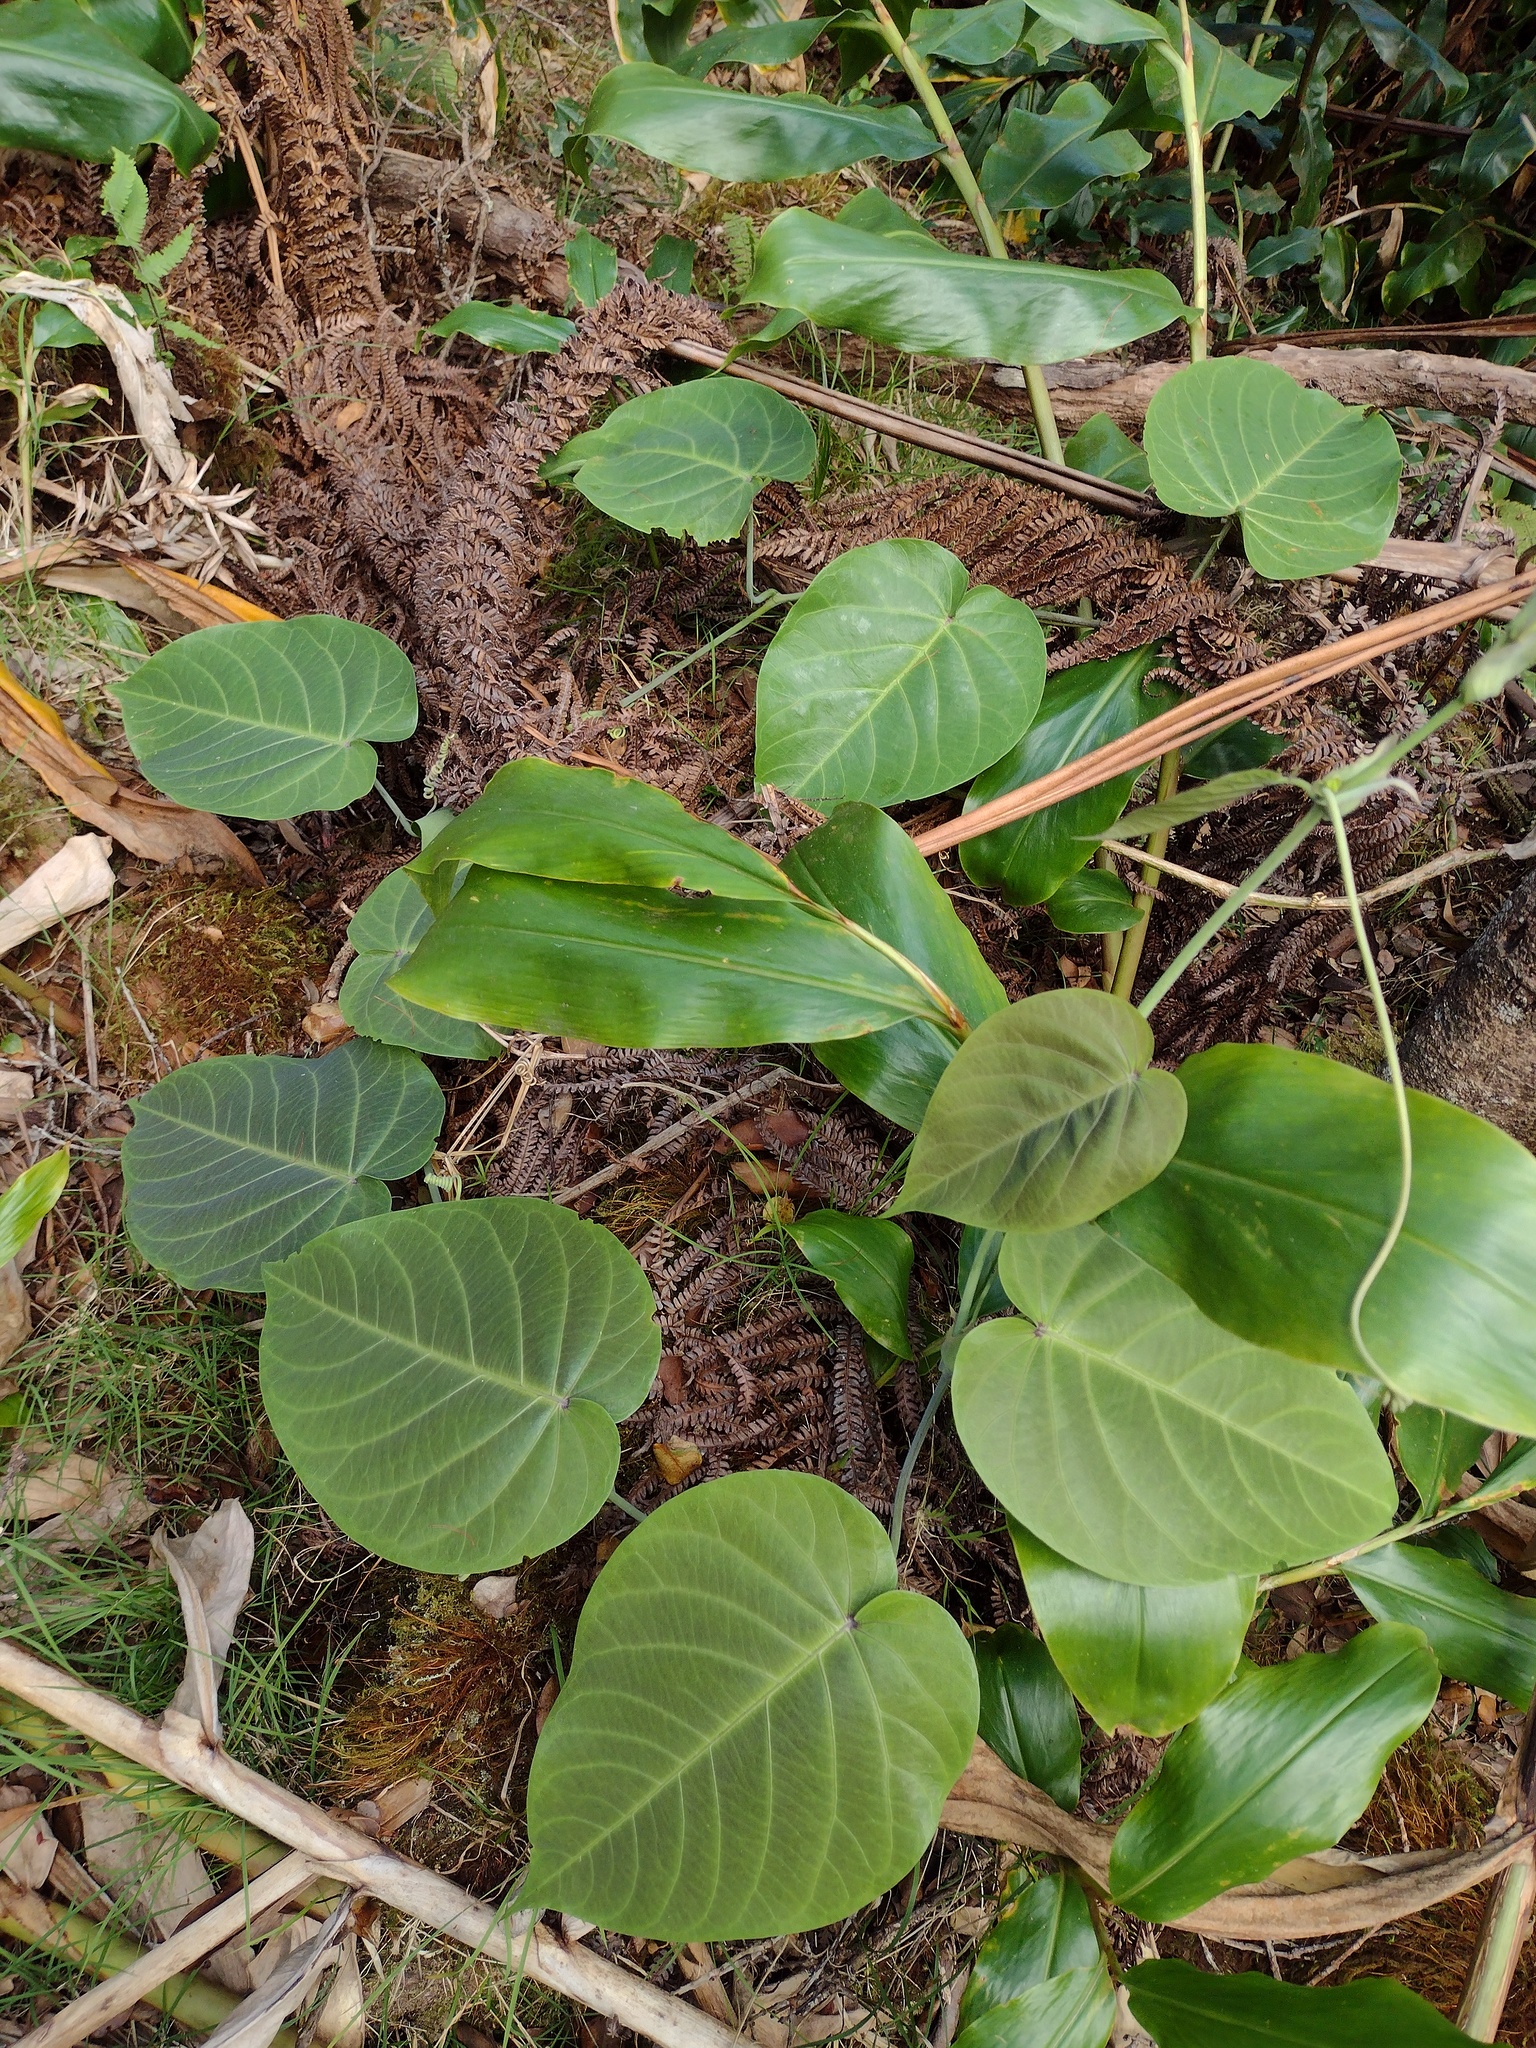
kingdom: Plantae
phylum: Tracheophyta
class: Magnoliopsida
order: Malpighiales
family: Passifloraceae
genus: Passiflora
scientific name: Passiflora ligularis
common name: Sweet granadilla
